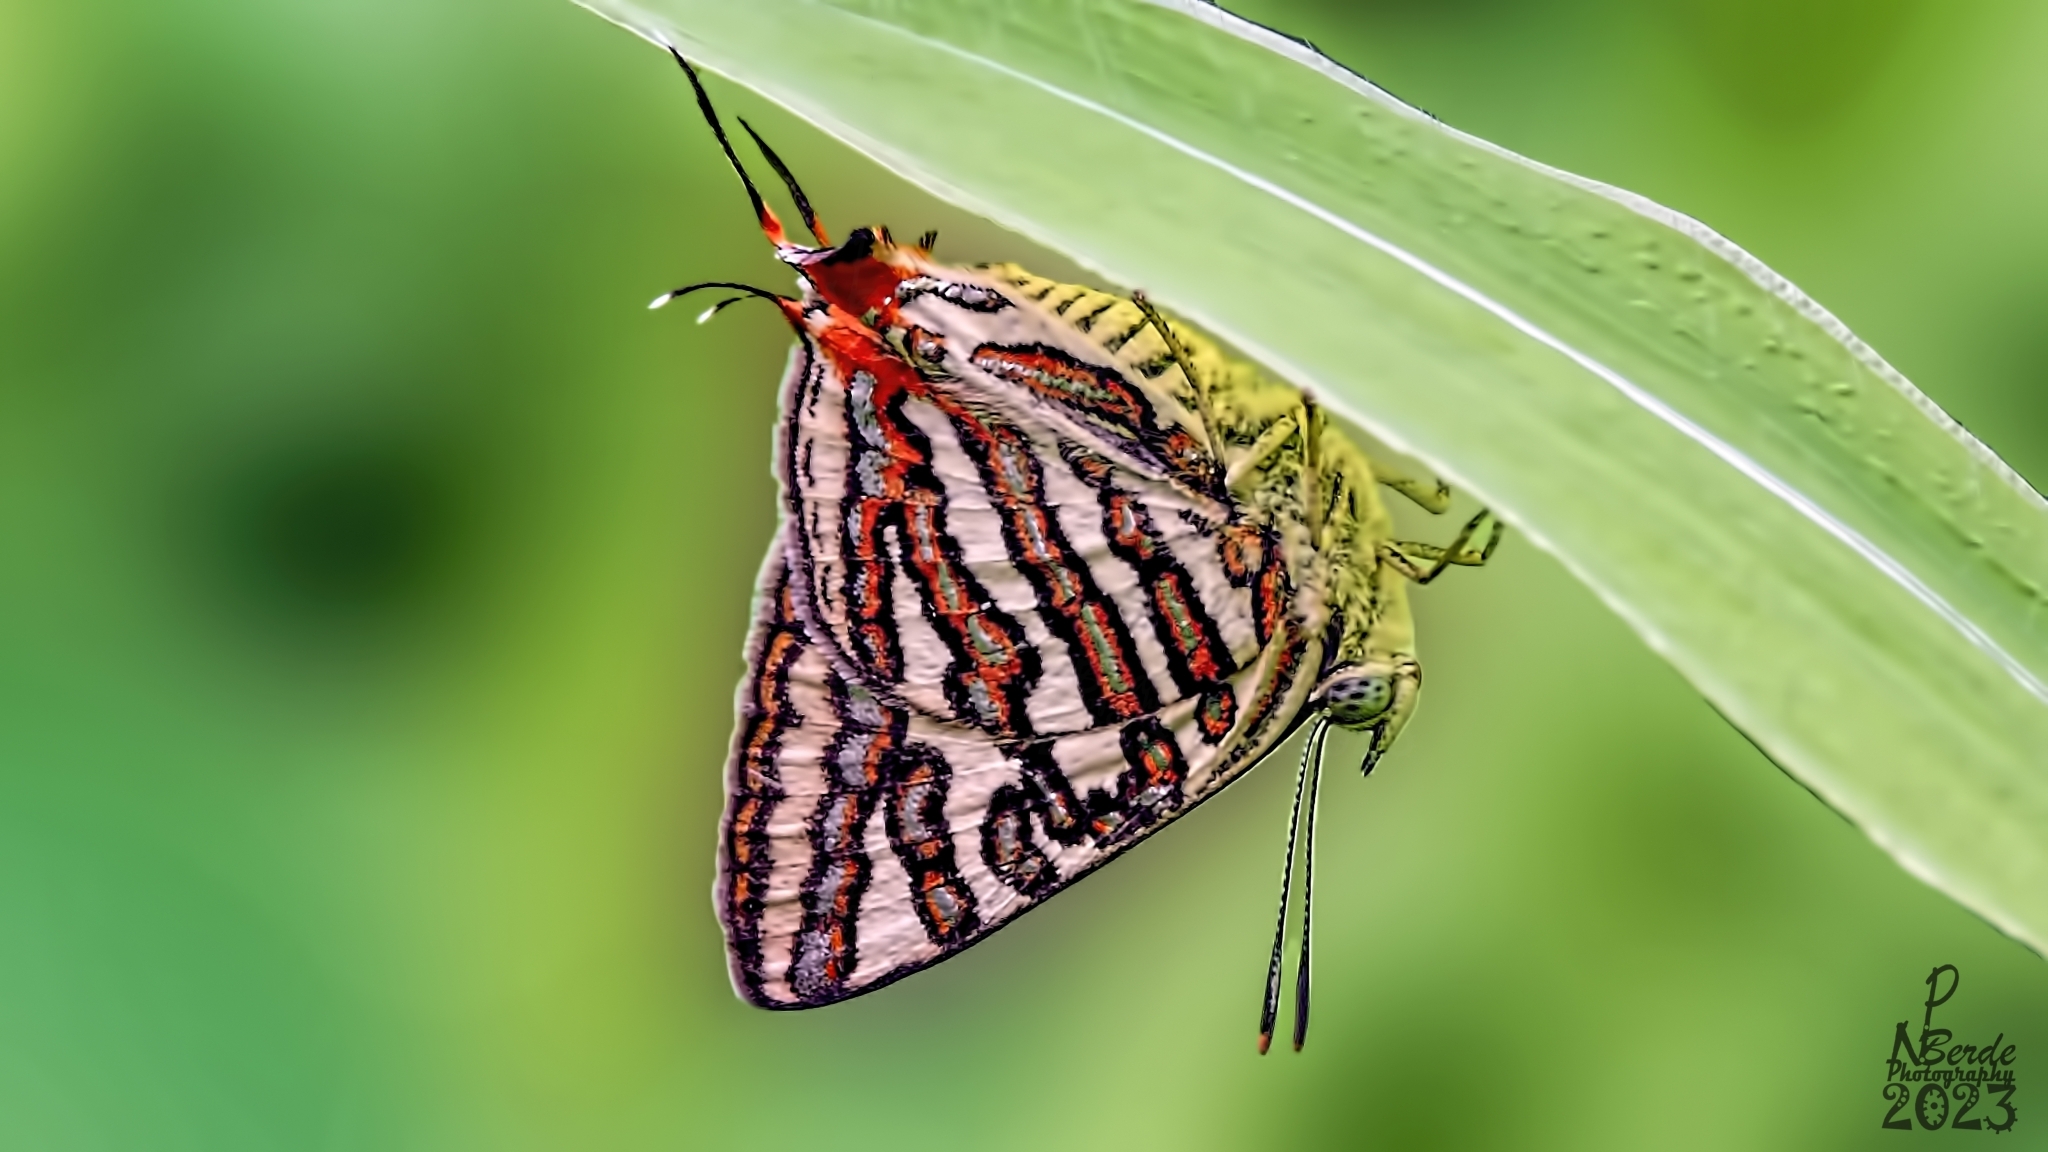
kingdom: Animalia
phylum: Arthropoda
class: Insecta
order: Lepidoptera
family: Lycaenidae
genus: Cigaritis
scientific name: Cigaritis vulcanus
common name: Common silverline
